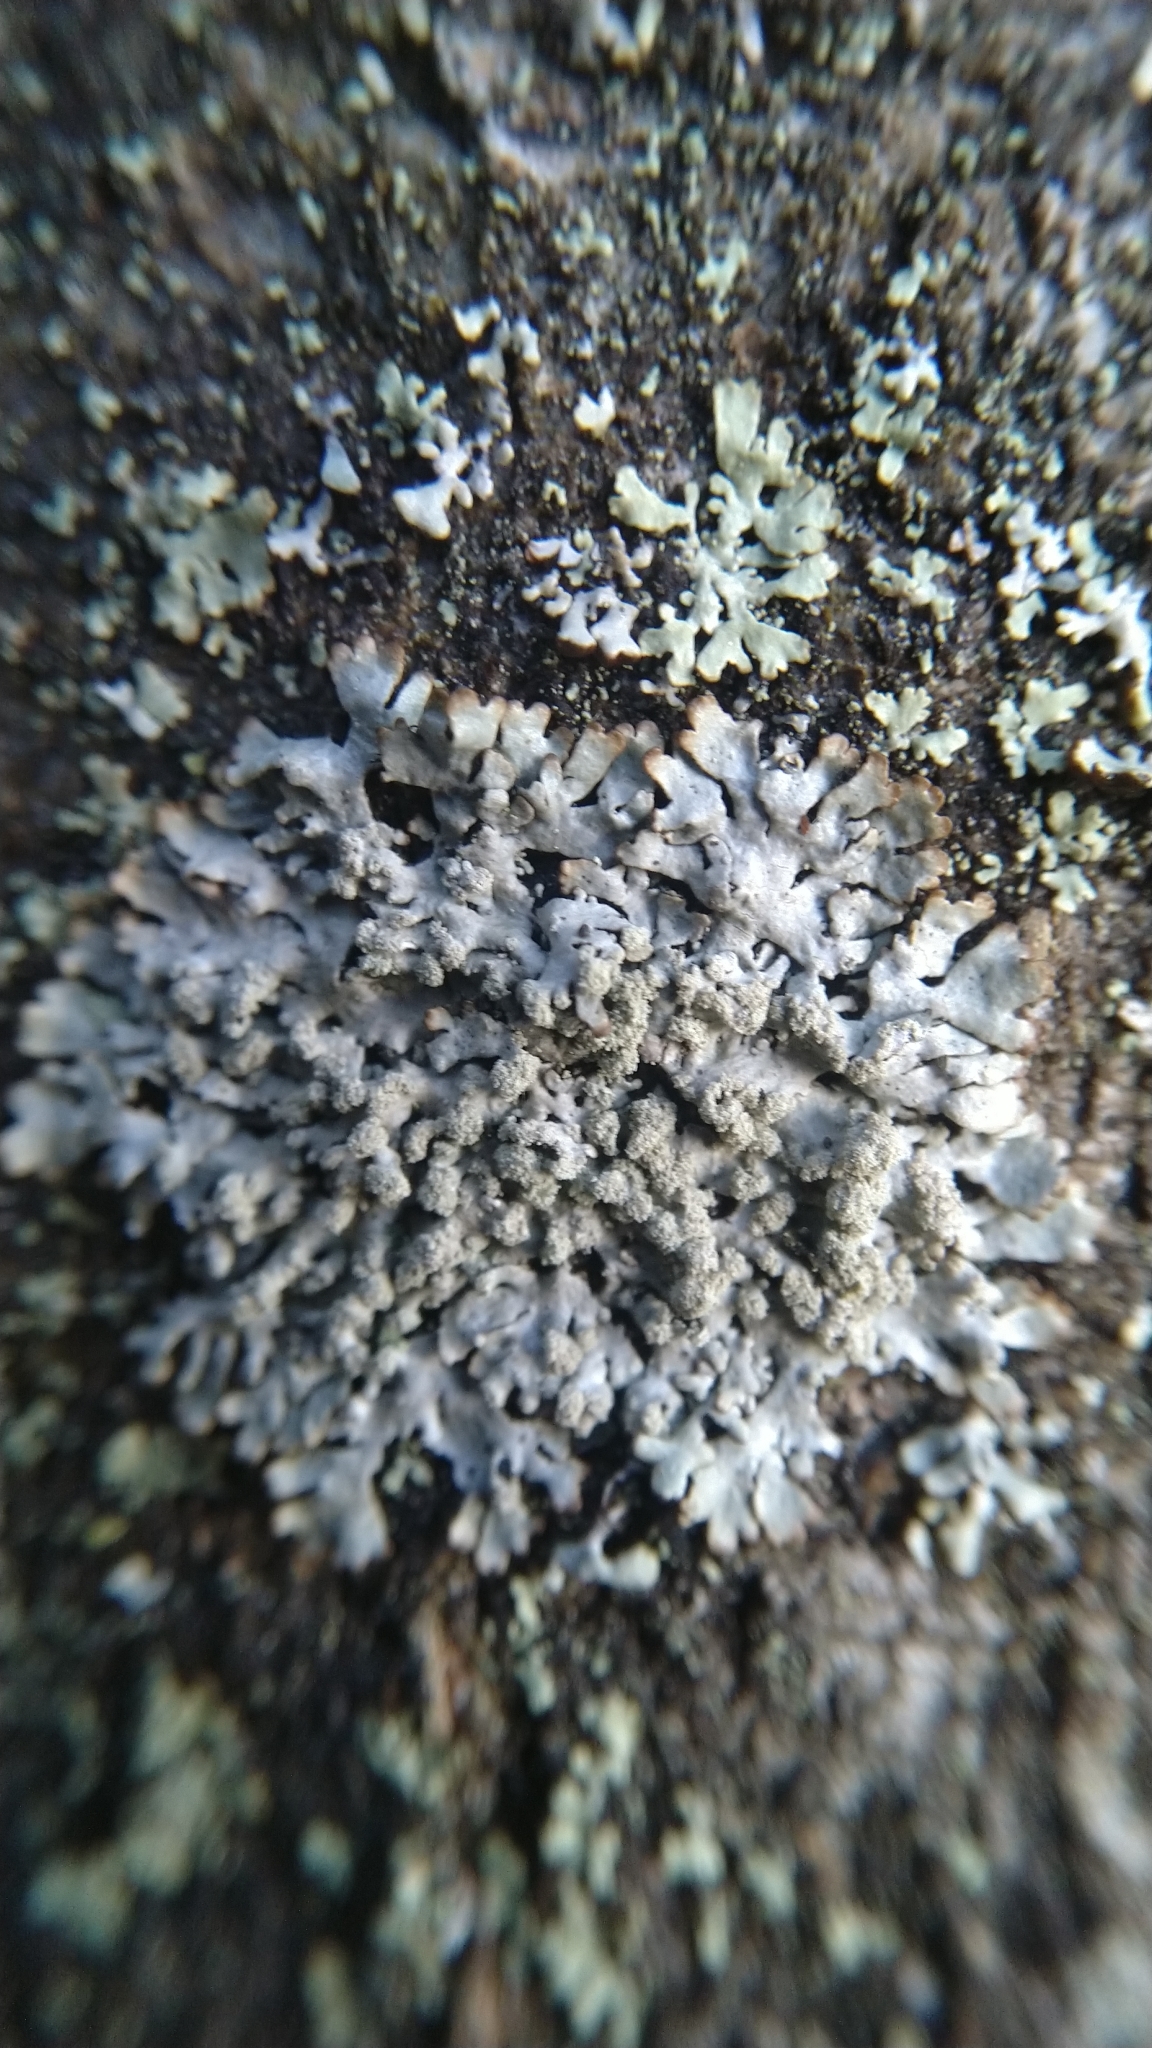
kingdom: Fungi
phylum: Ascomycota
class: Lecanoromycetes
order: Lecanorales
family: Parmeliaceae
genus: Parmeliopsis
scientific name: Parmeliopsis hyperopta
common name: Grey starburst lichen
